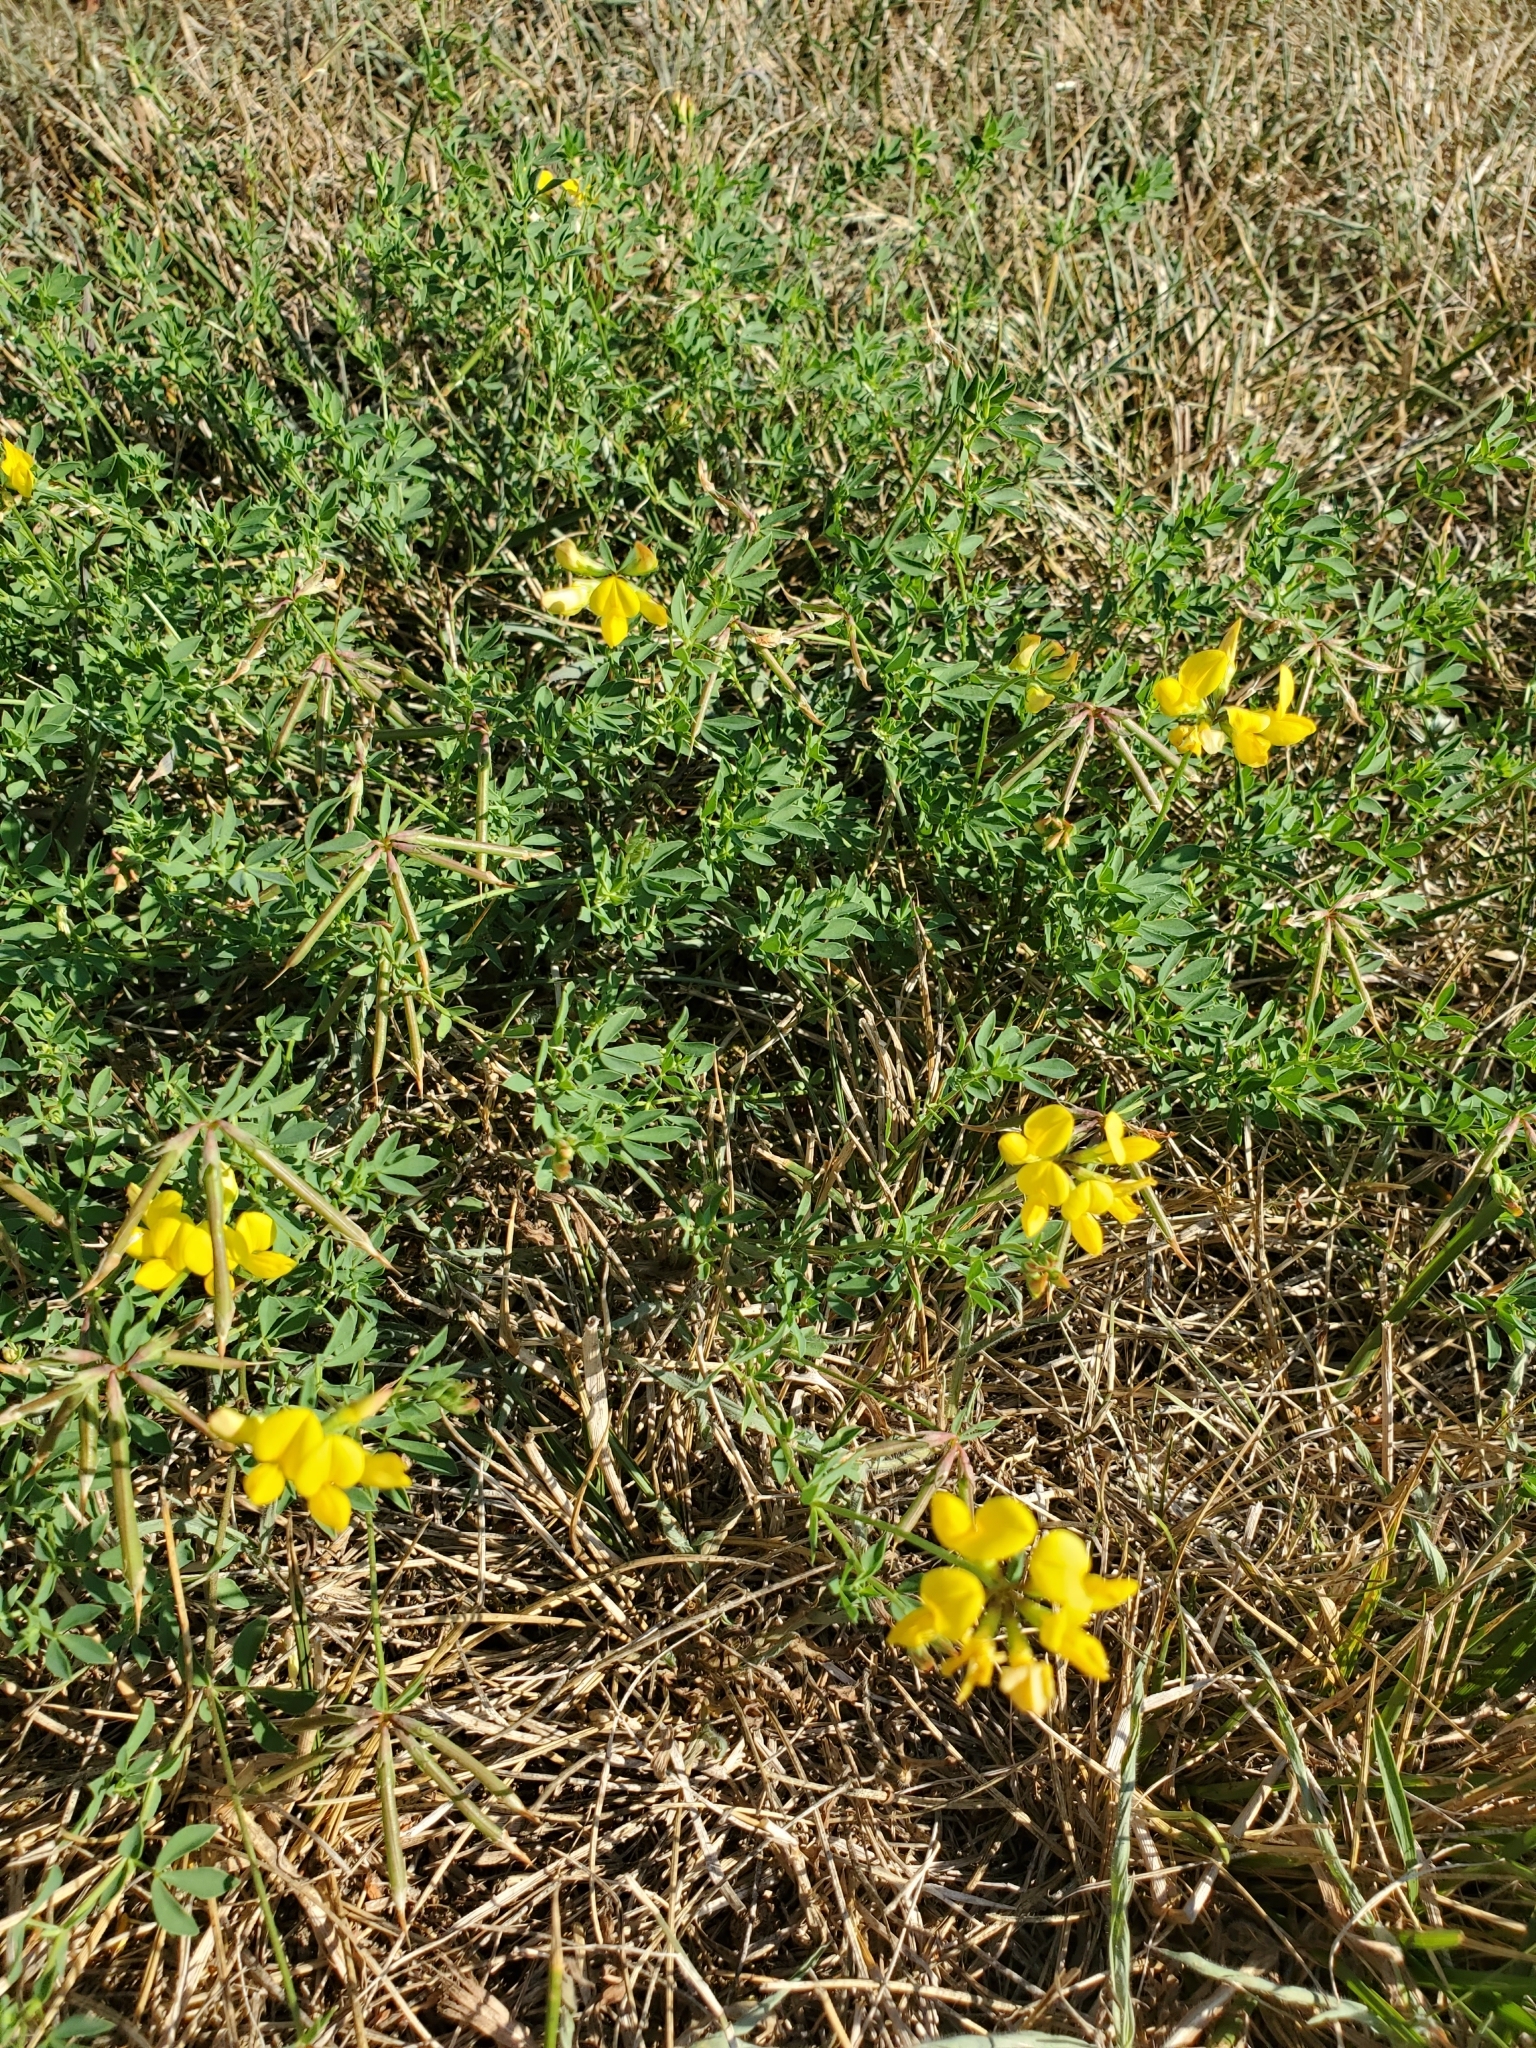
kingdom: Plantae
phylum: Tracheophyta
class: Magnoliopsida
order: Fabales
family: Fabaceae
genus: Lotus
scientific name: Lotus corniculatus
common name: Common bird's-foot-trefoil
